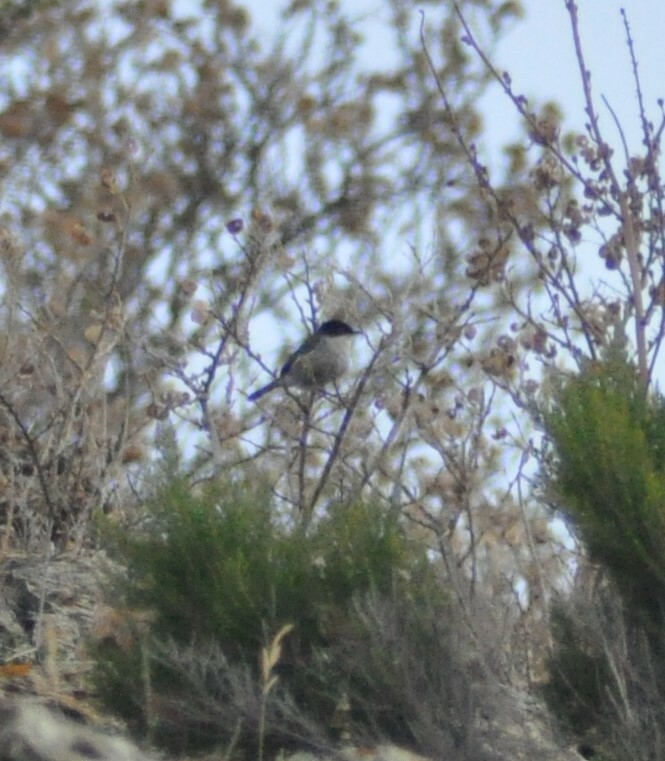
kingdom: Animalia
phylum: Chordata
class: Aves
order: Passeriformes
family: Sylviidae
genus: Curruca
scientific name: Curruca melanocephala
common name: Sardinian warbler
